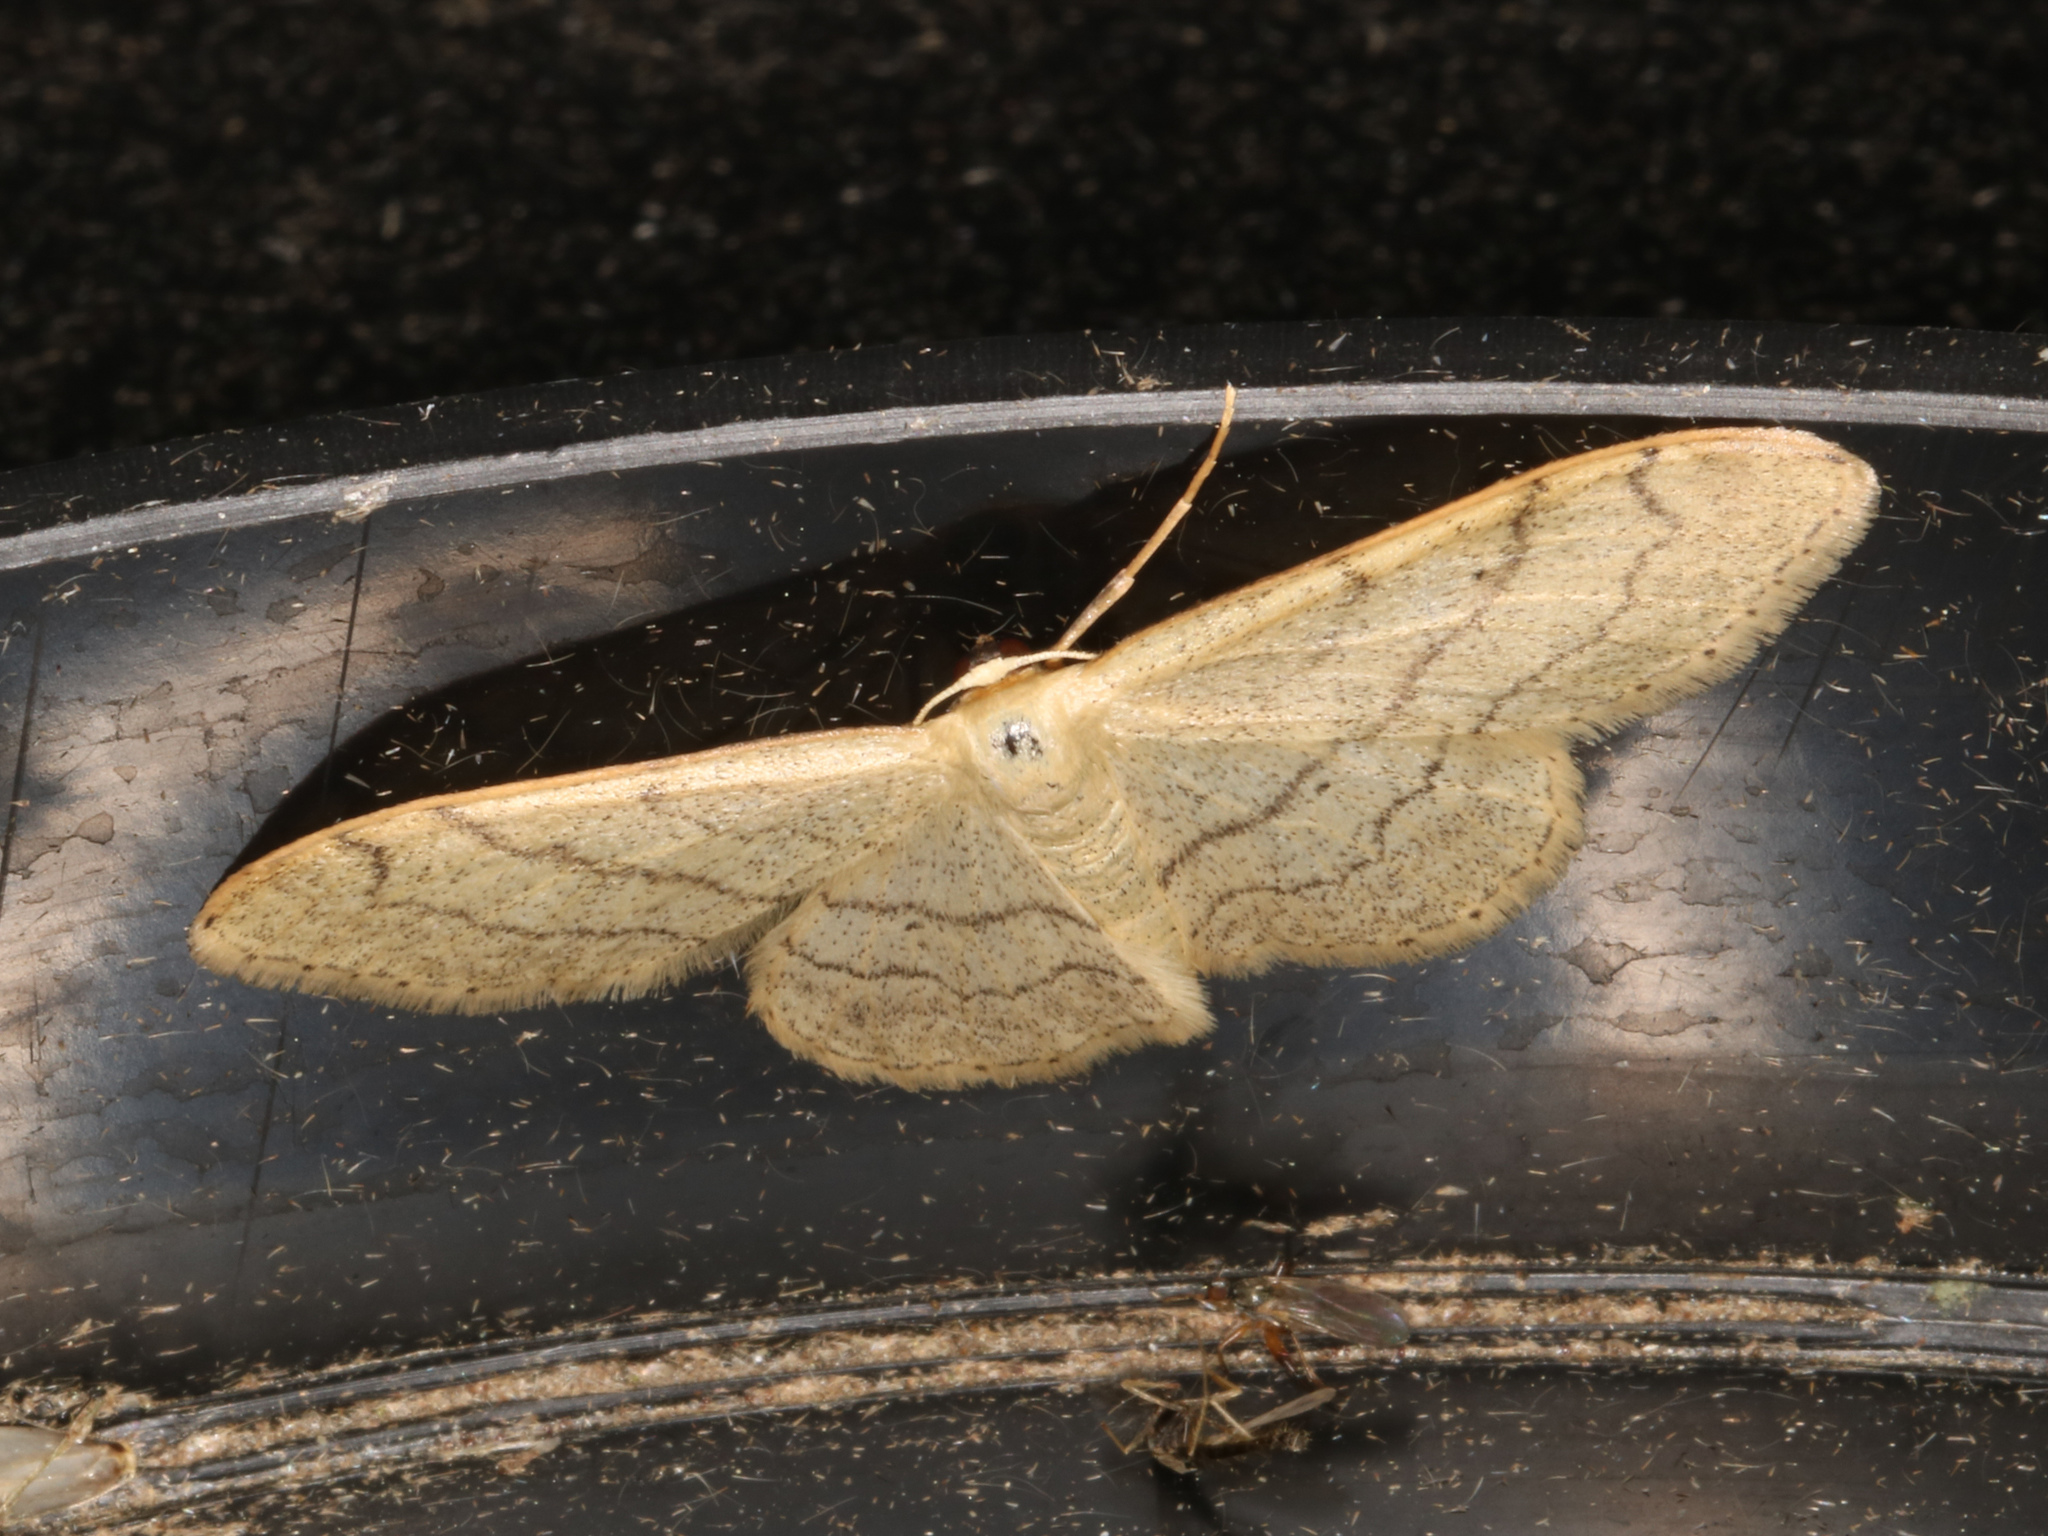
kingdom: Animalia
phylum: Arthropoda
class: Insecta
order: Lepidoptera
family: Geometridae
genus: Idaea
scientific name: Idaea aversata
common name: Riband wave
